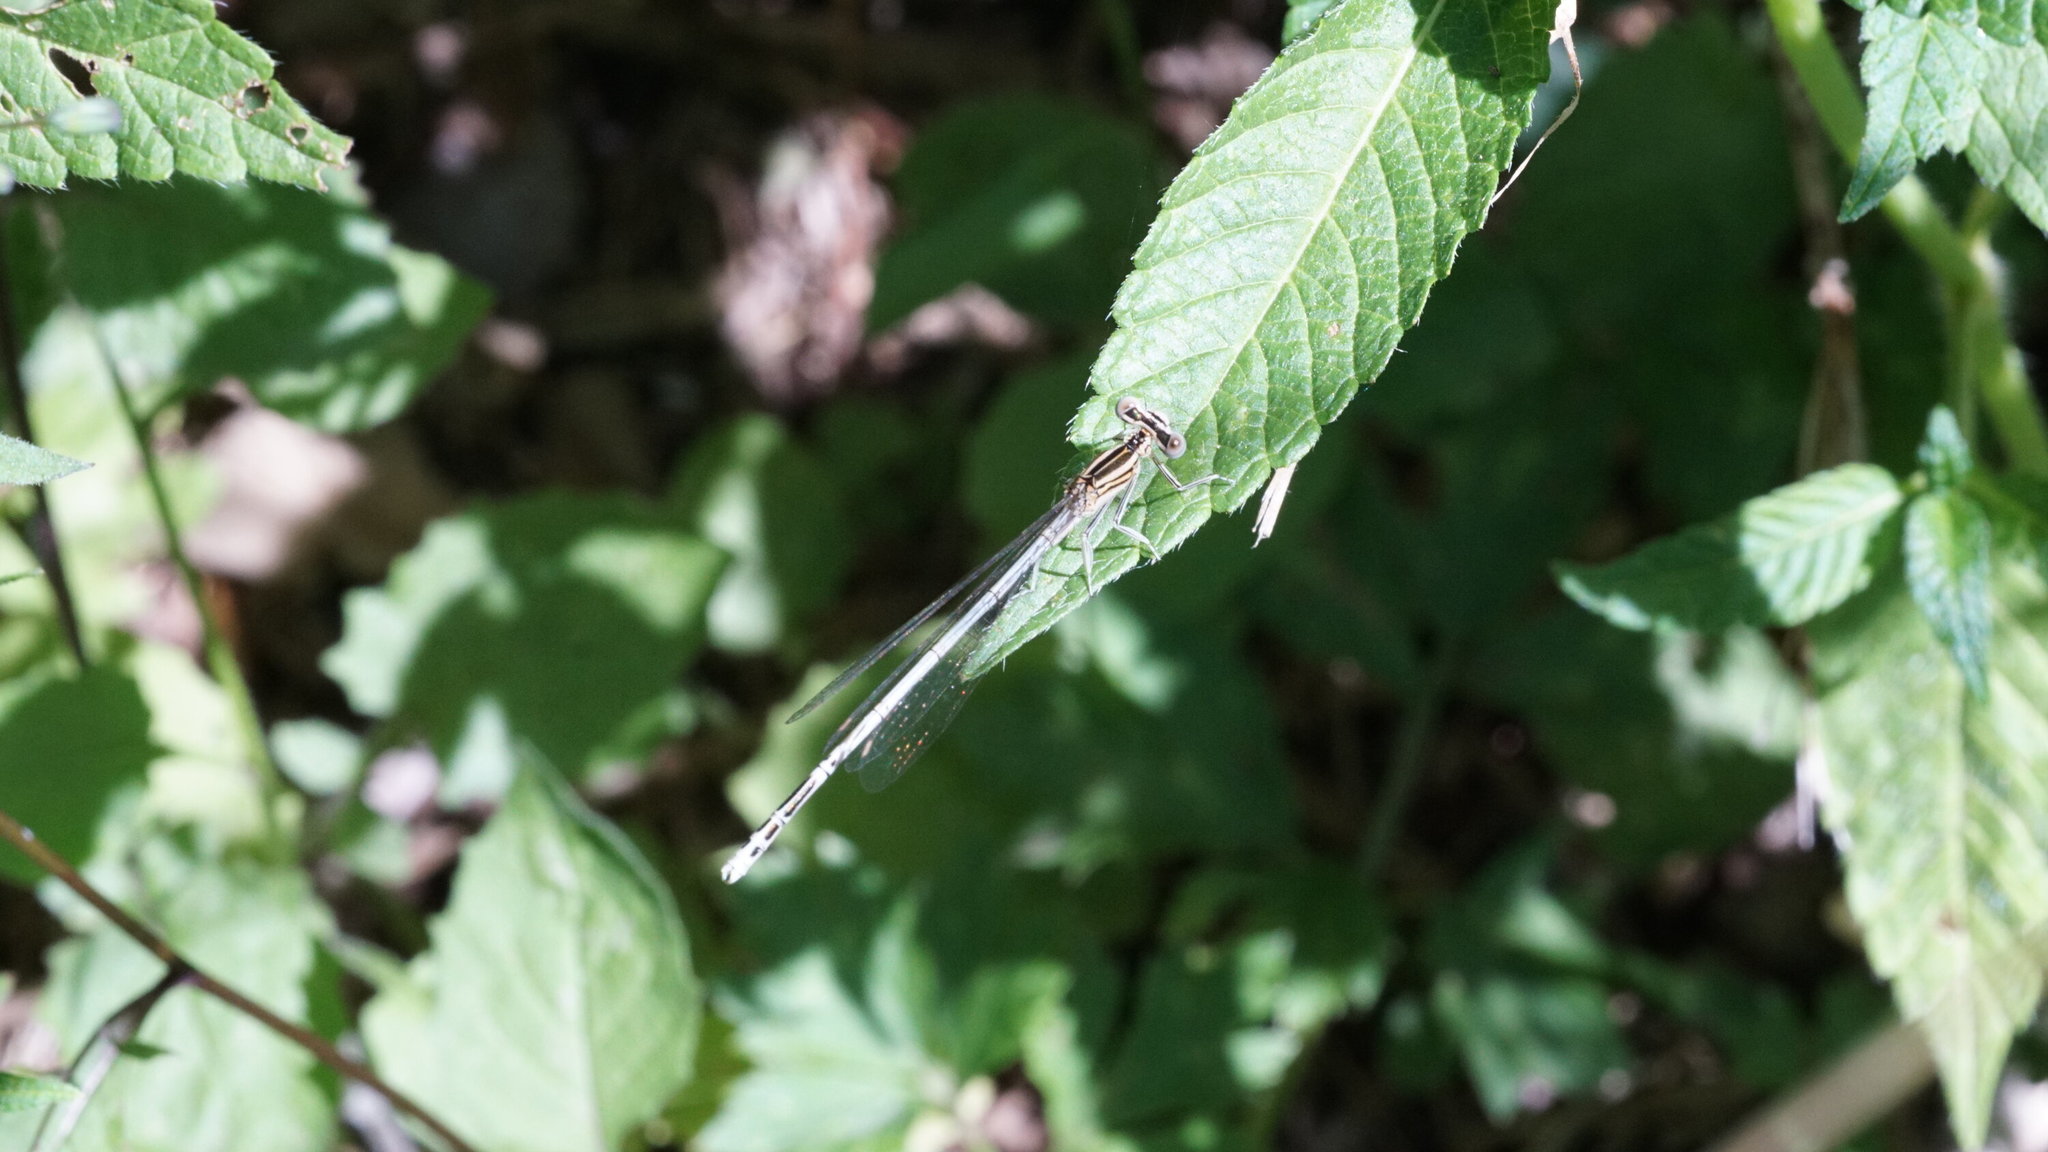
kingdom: Animalia
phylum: Arthropoda
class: Insecta
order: Odonata
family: Platycnemididae
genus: Platycnemis
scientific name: Platycnemis pennipes
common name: White-legged damselfly
